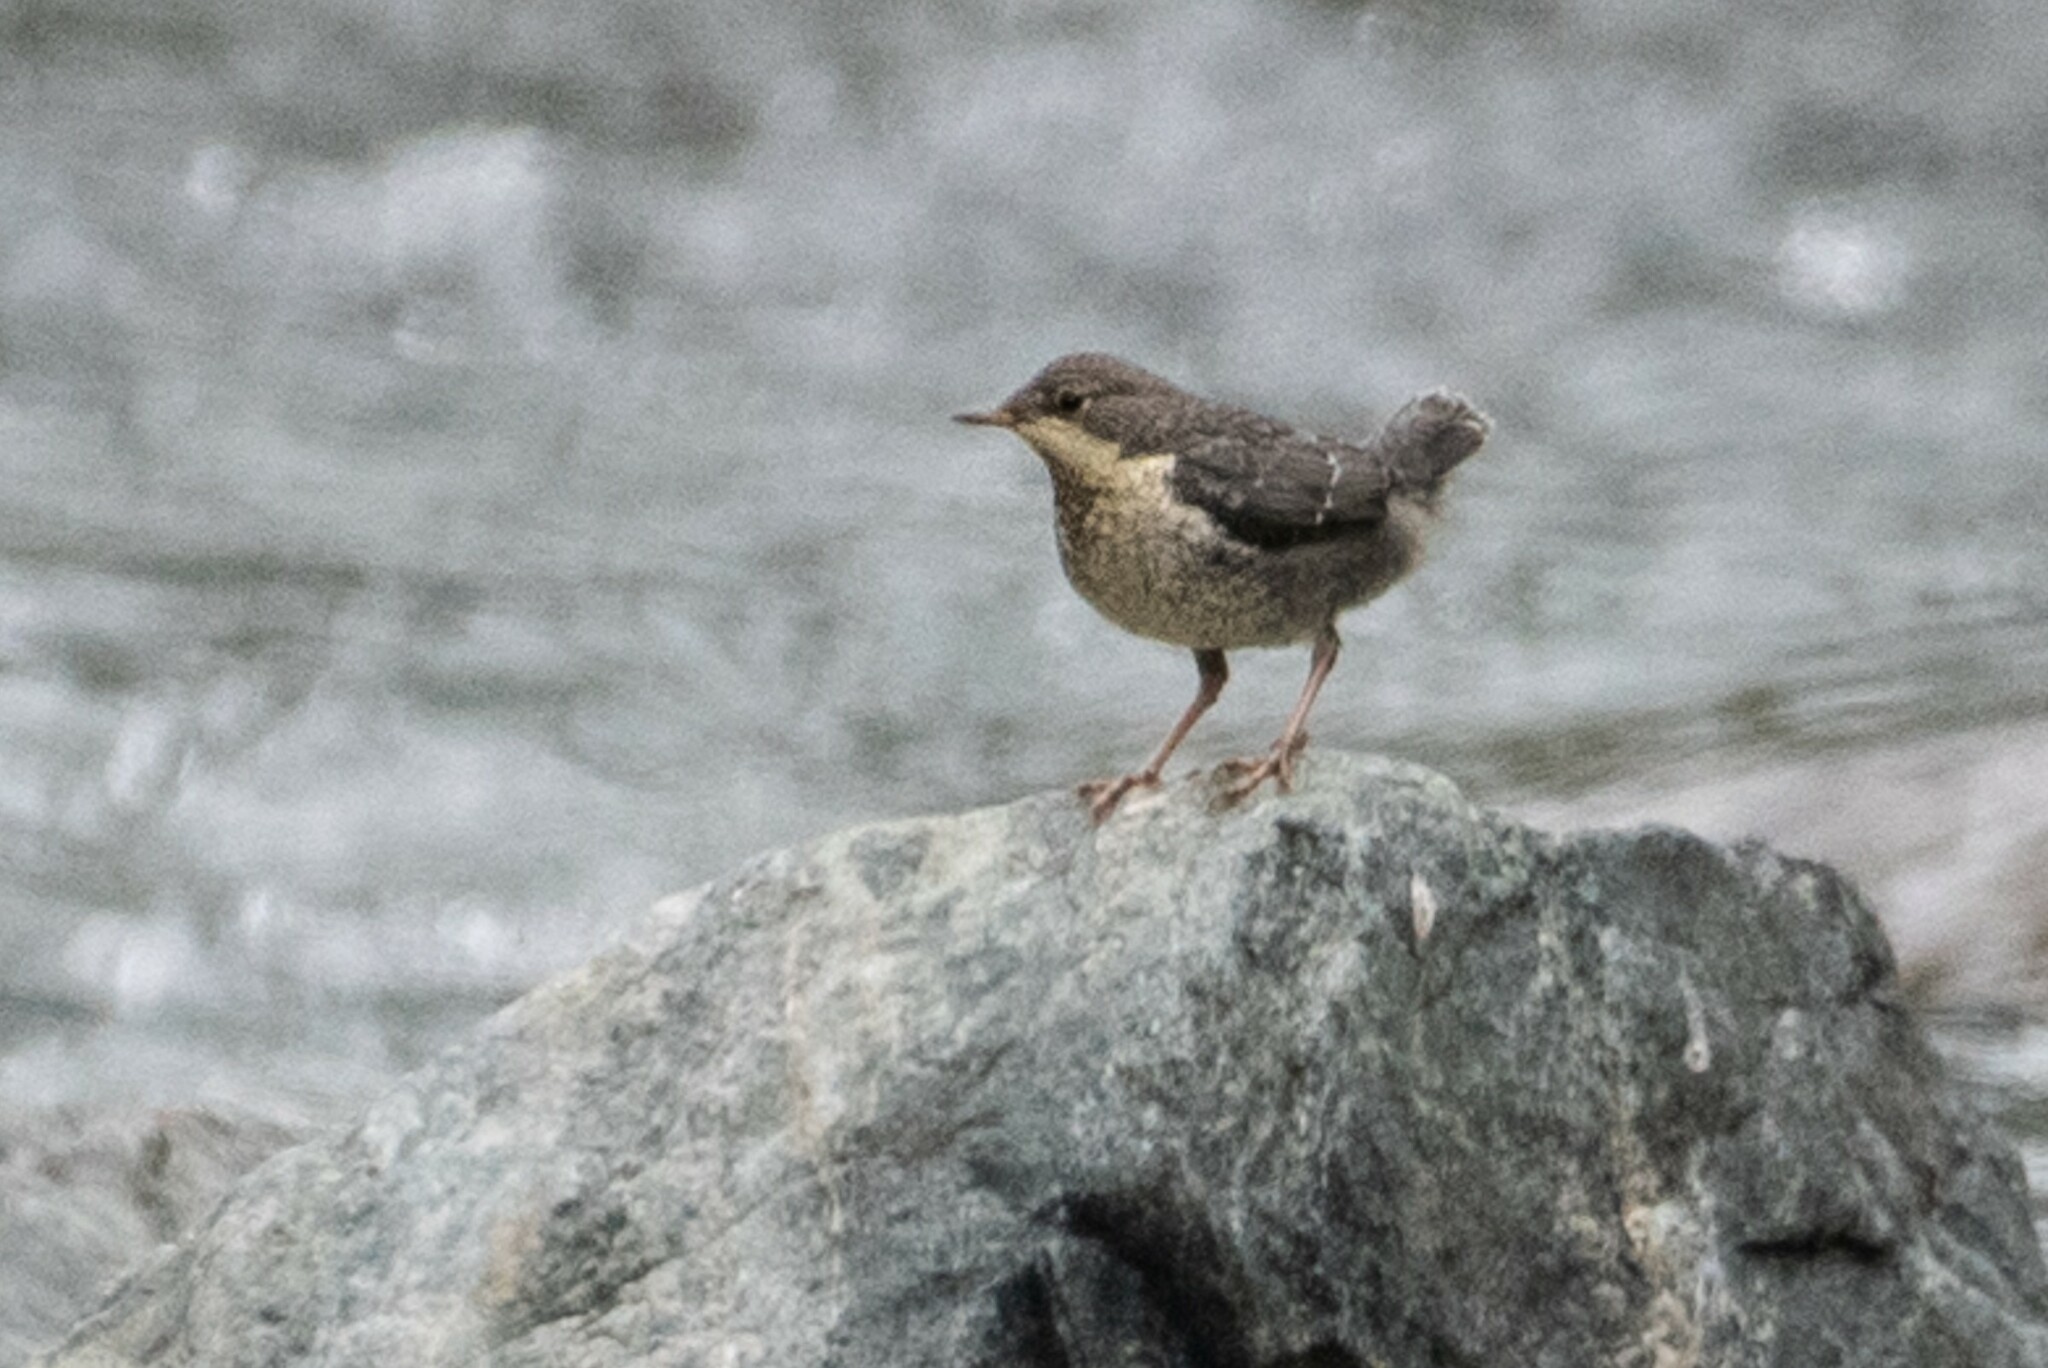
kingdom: Animalia
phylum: Chordata
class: Aves
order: Passeriformes
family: Cinclidae
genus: Cinclus
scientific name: Cinclus cinclus
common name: White-throated dipper
